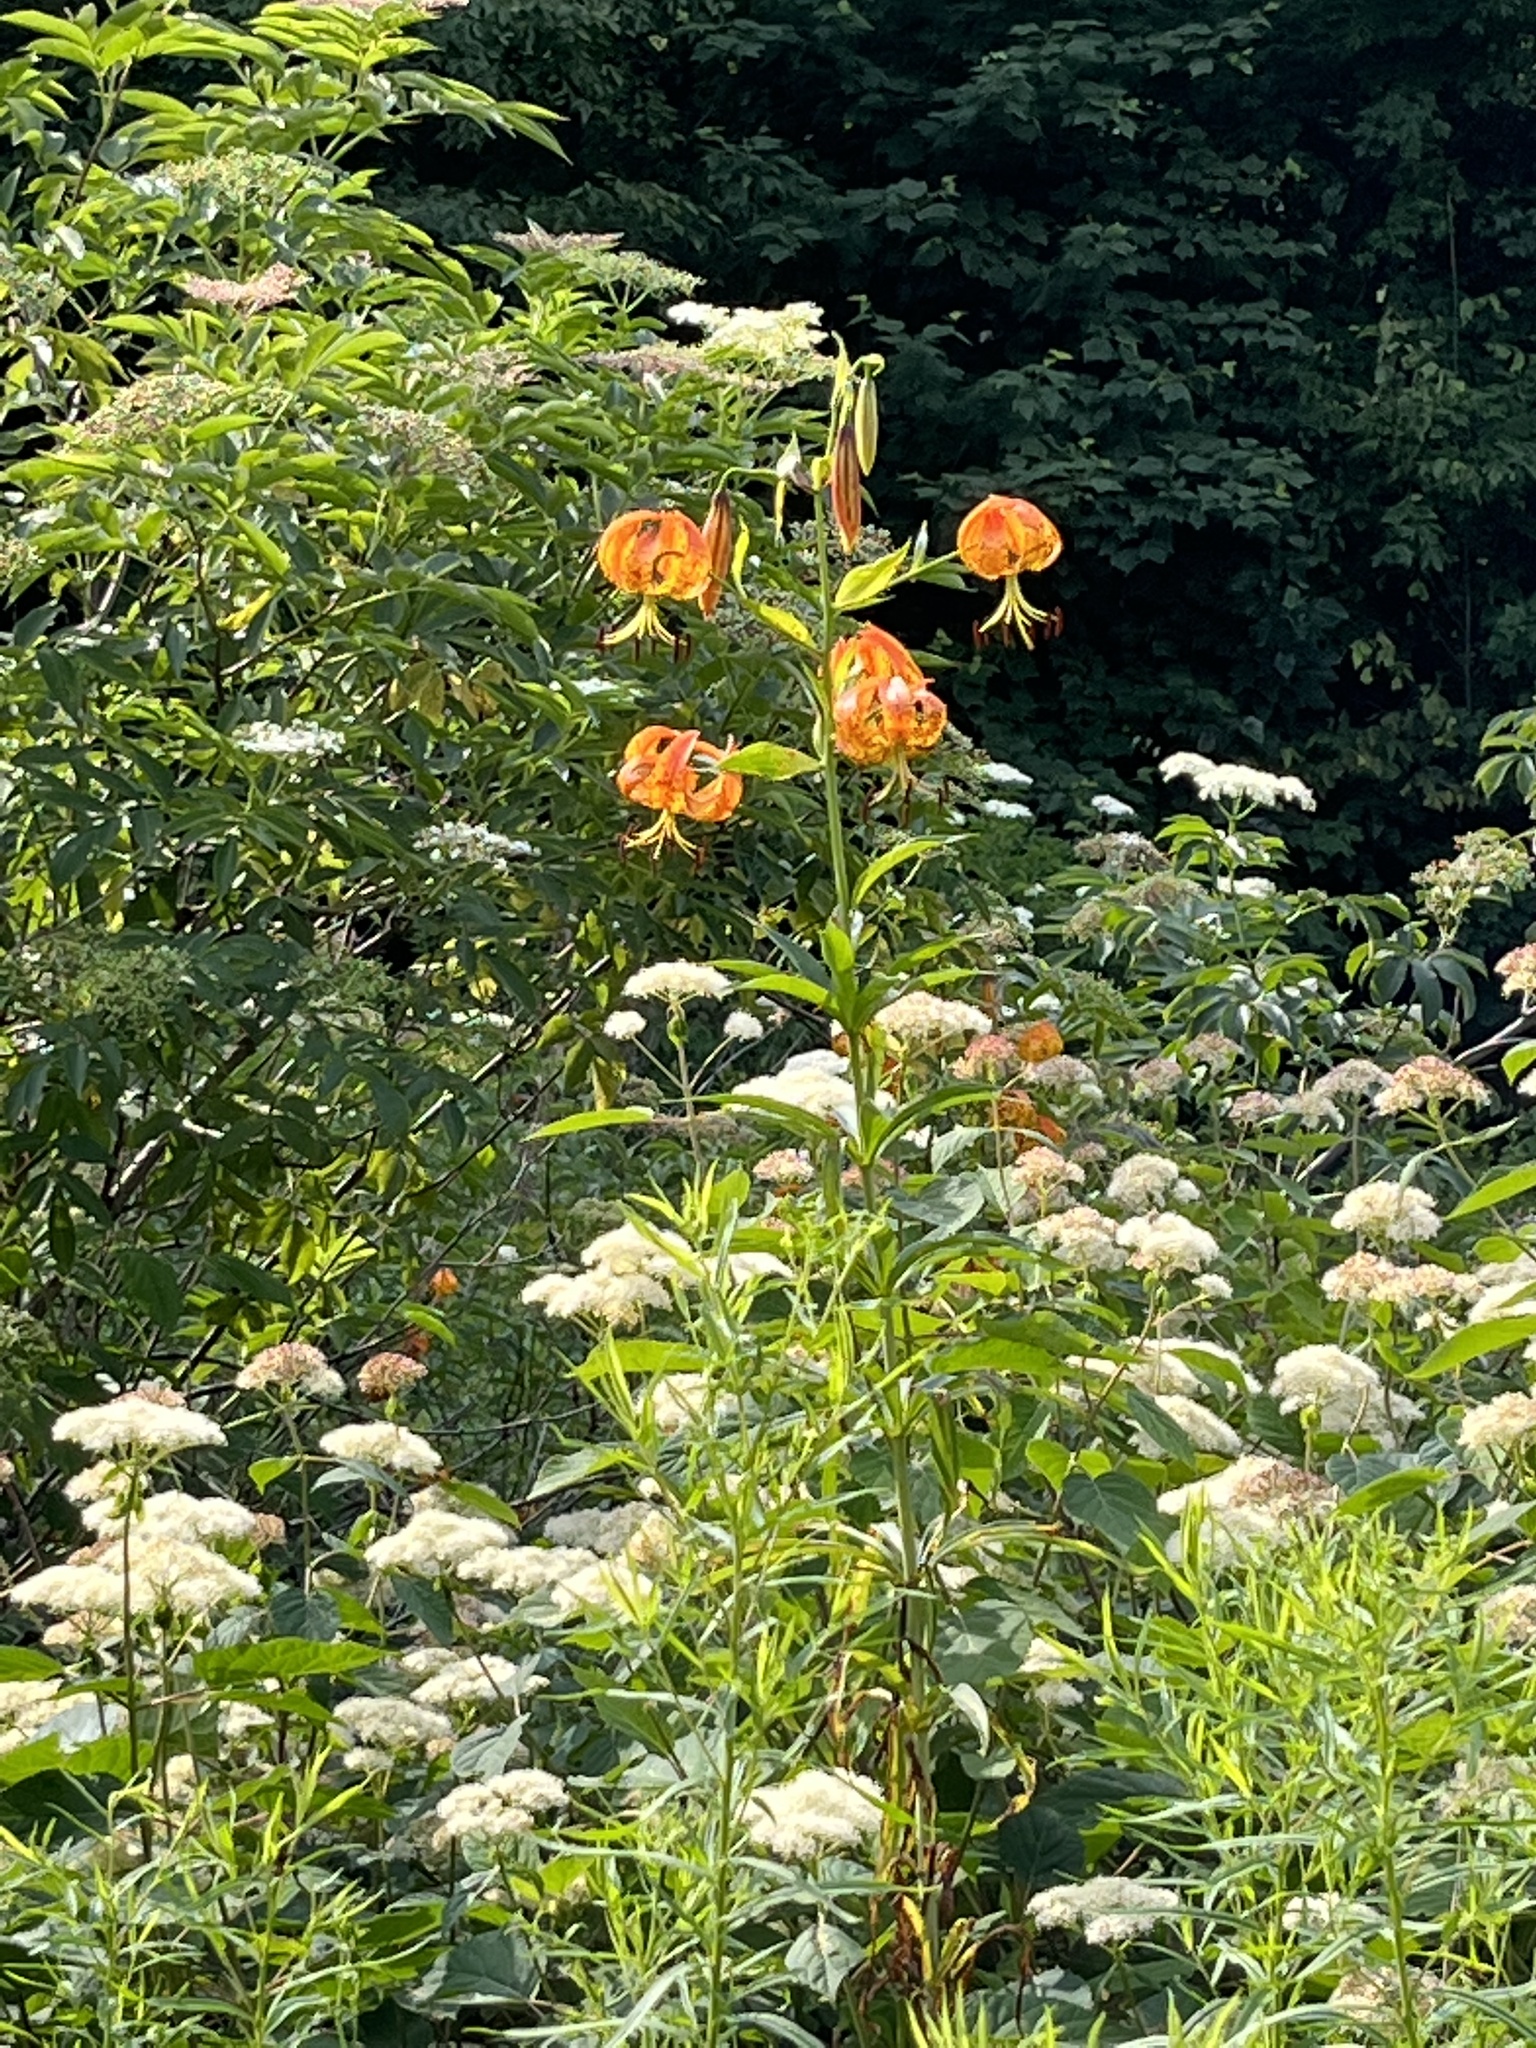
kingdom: Plantae
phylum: Tracheophyta
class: Liliopsida
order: Liliales
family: Liliaceae
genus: Lilium
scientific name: Lilium superbum
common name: American turk's-cap lily
